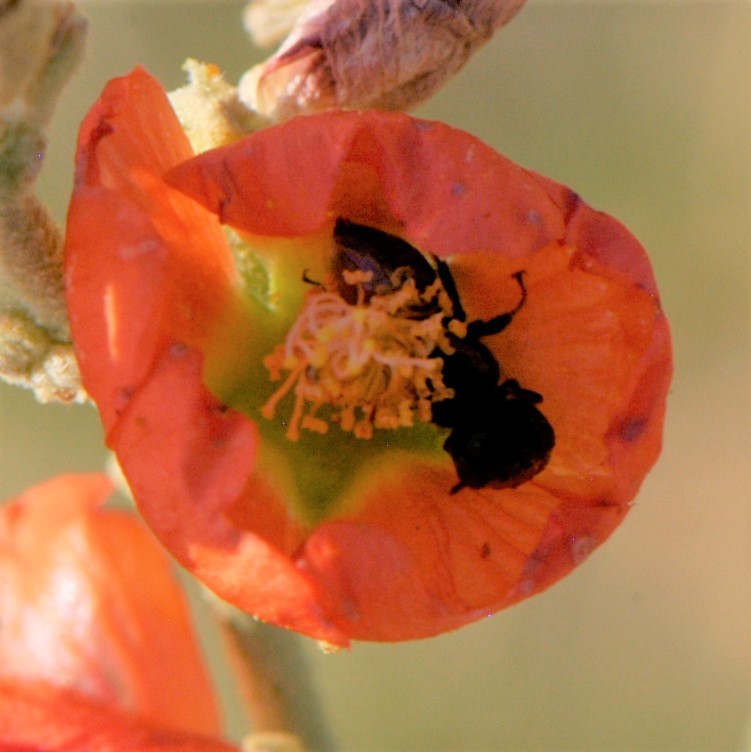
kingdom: Animalia
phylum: Arthropoda
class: Insecta
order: Hymenoptera
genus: Macroteropsis
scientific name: Macroteropsis
